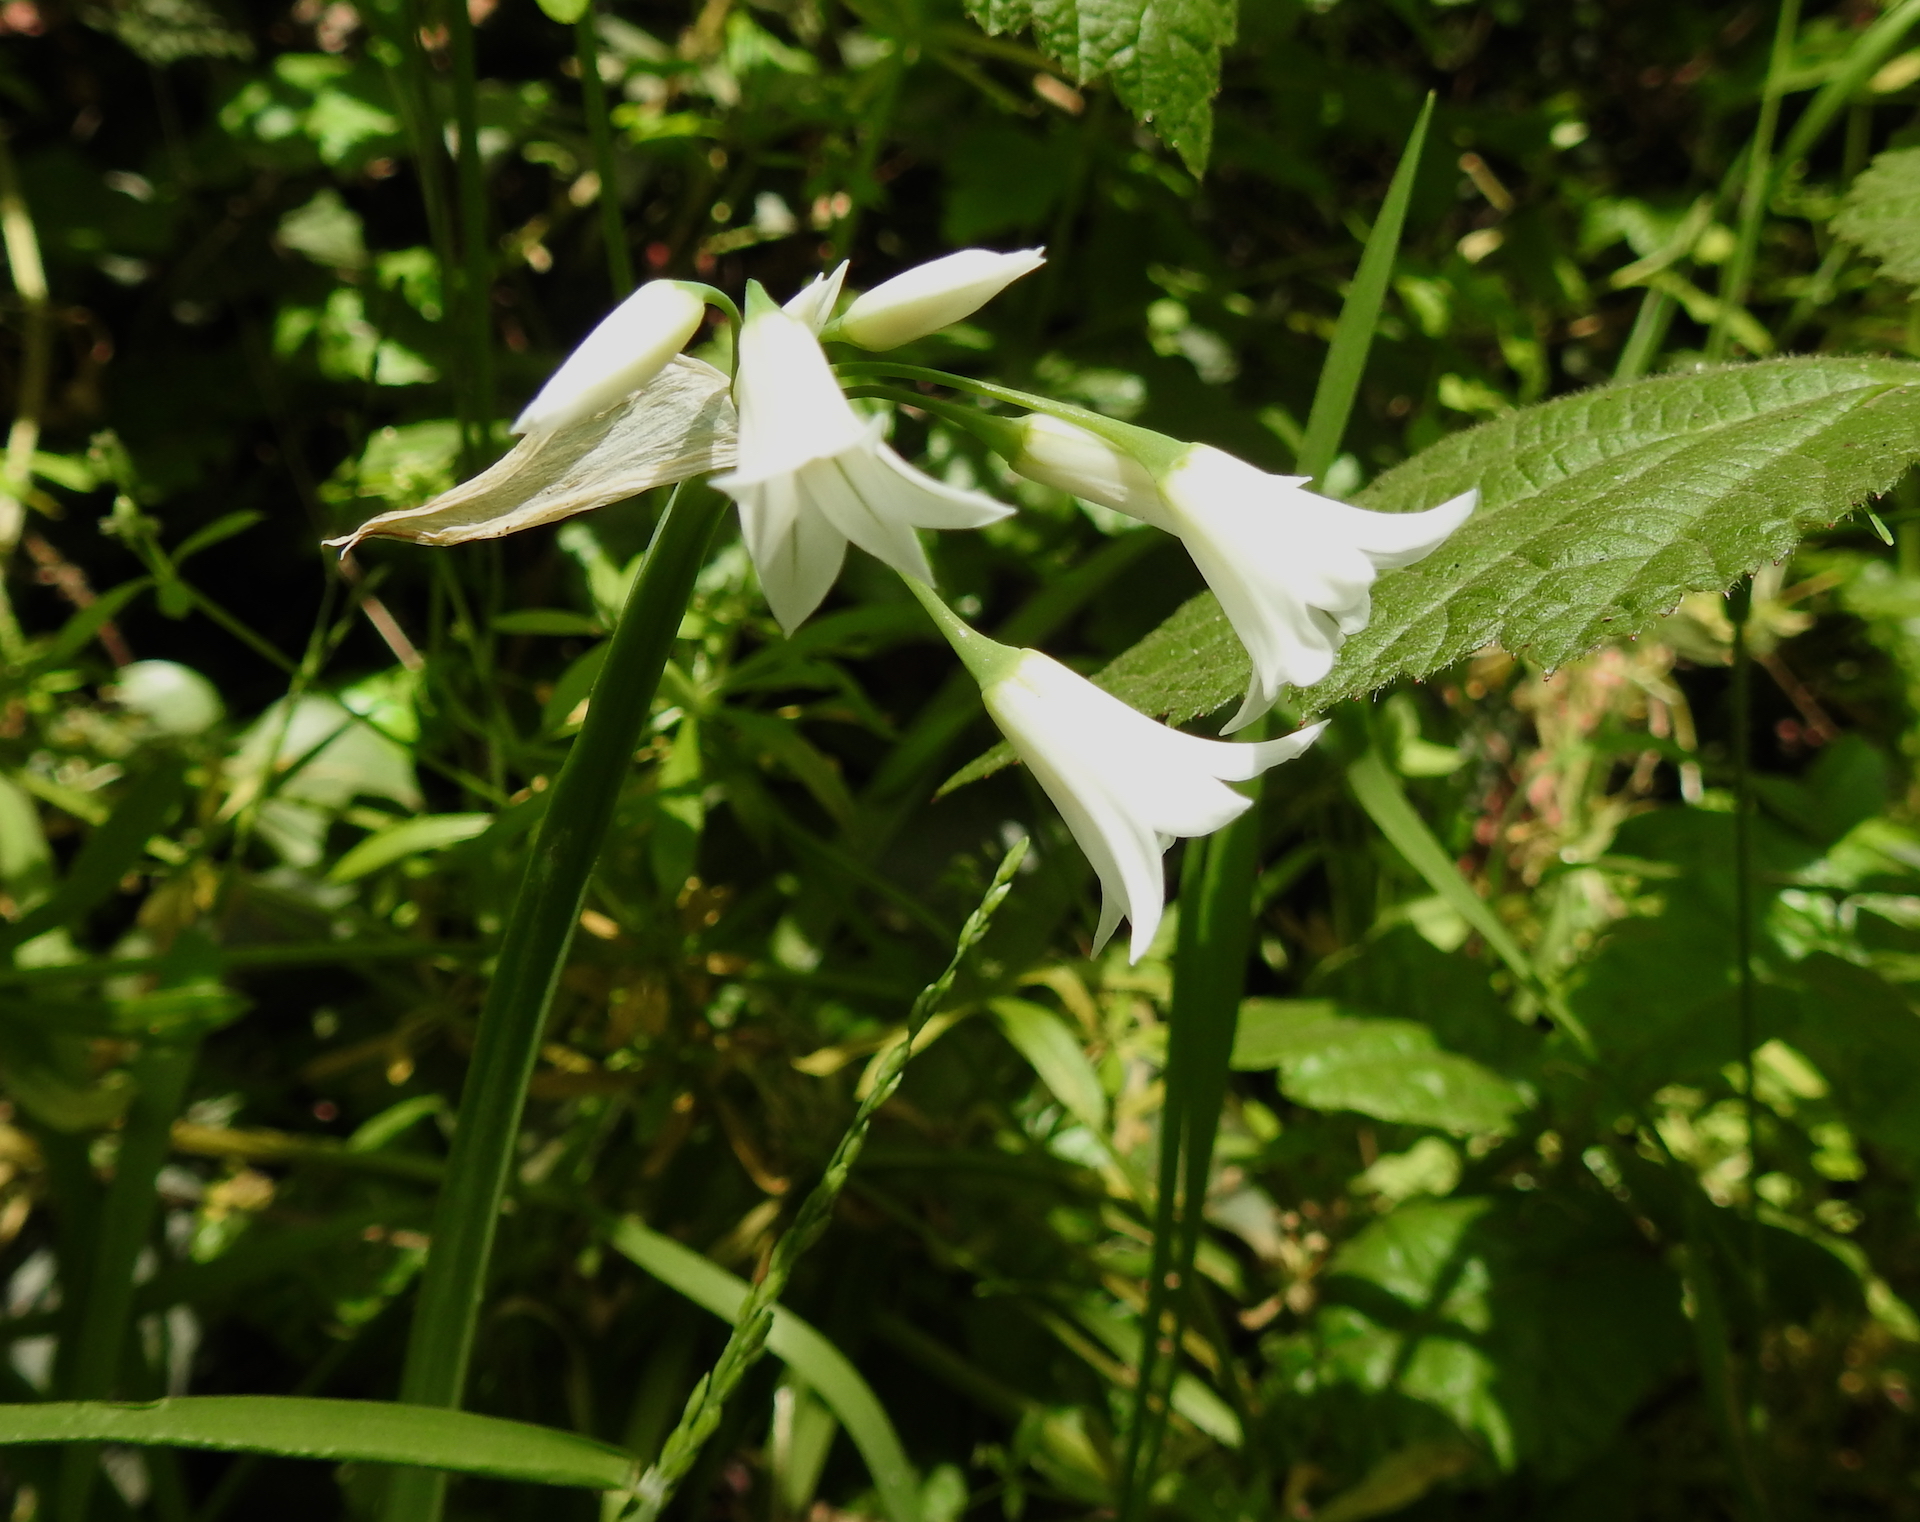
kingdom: Plantae
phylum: Tracheophyta
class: Liliopsida
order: Asparagales
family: Amaryllidaceae
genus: Allium
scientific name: Allium triquetrum
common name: Three-cornered garlic
